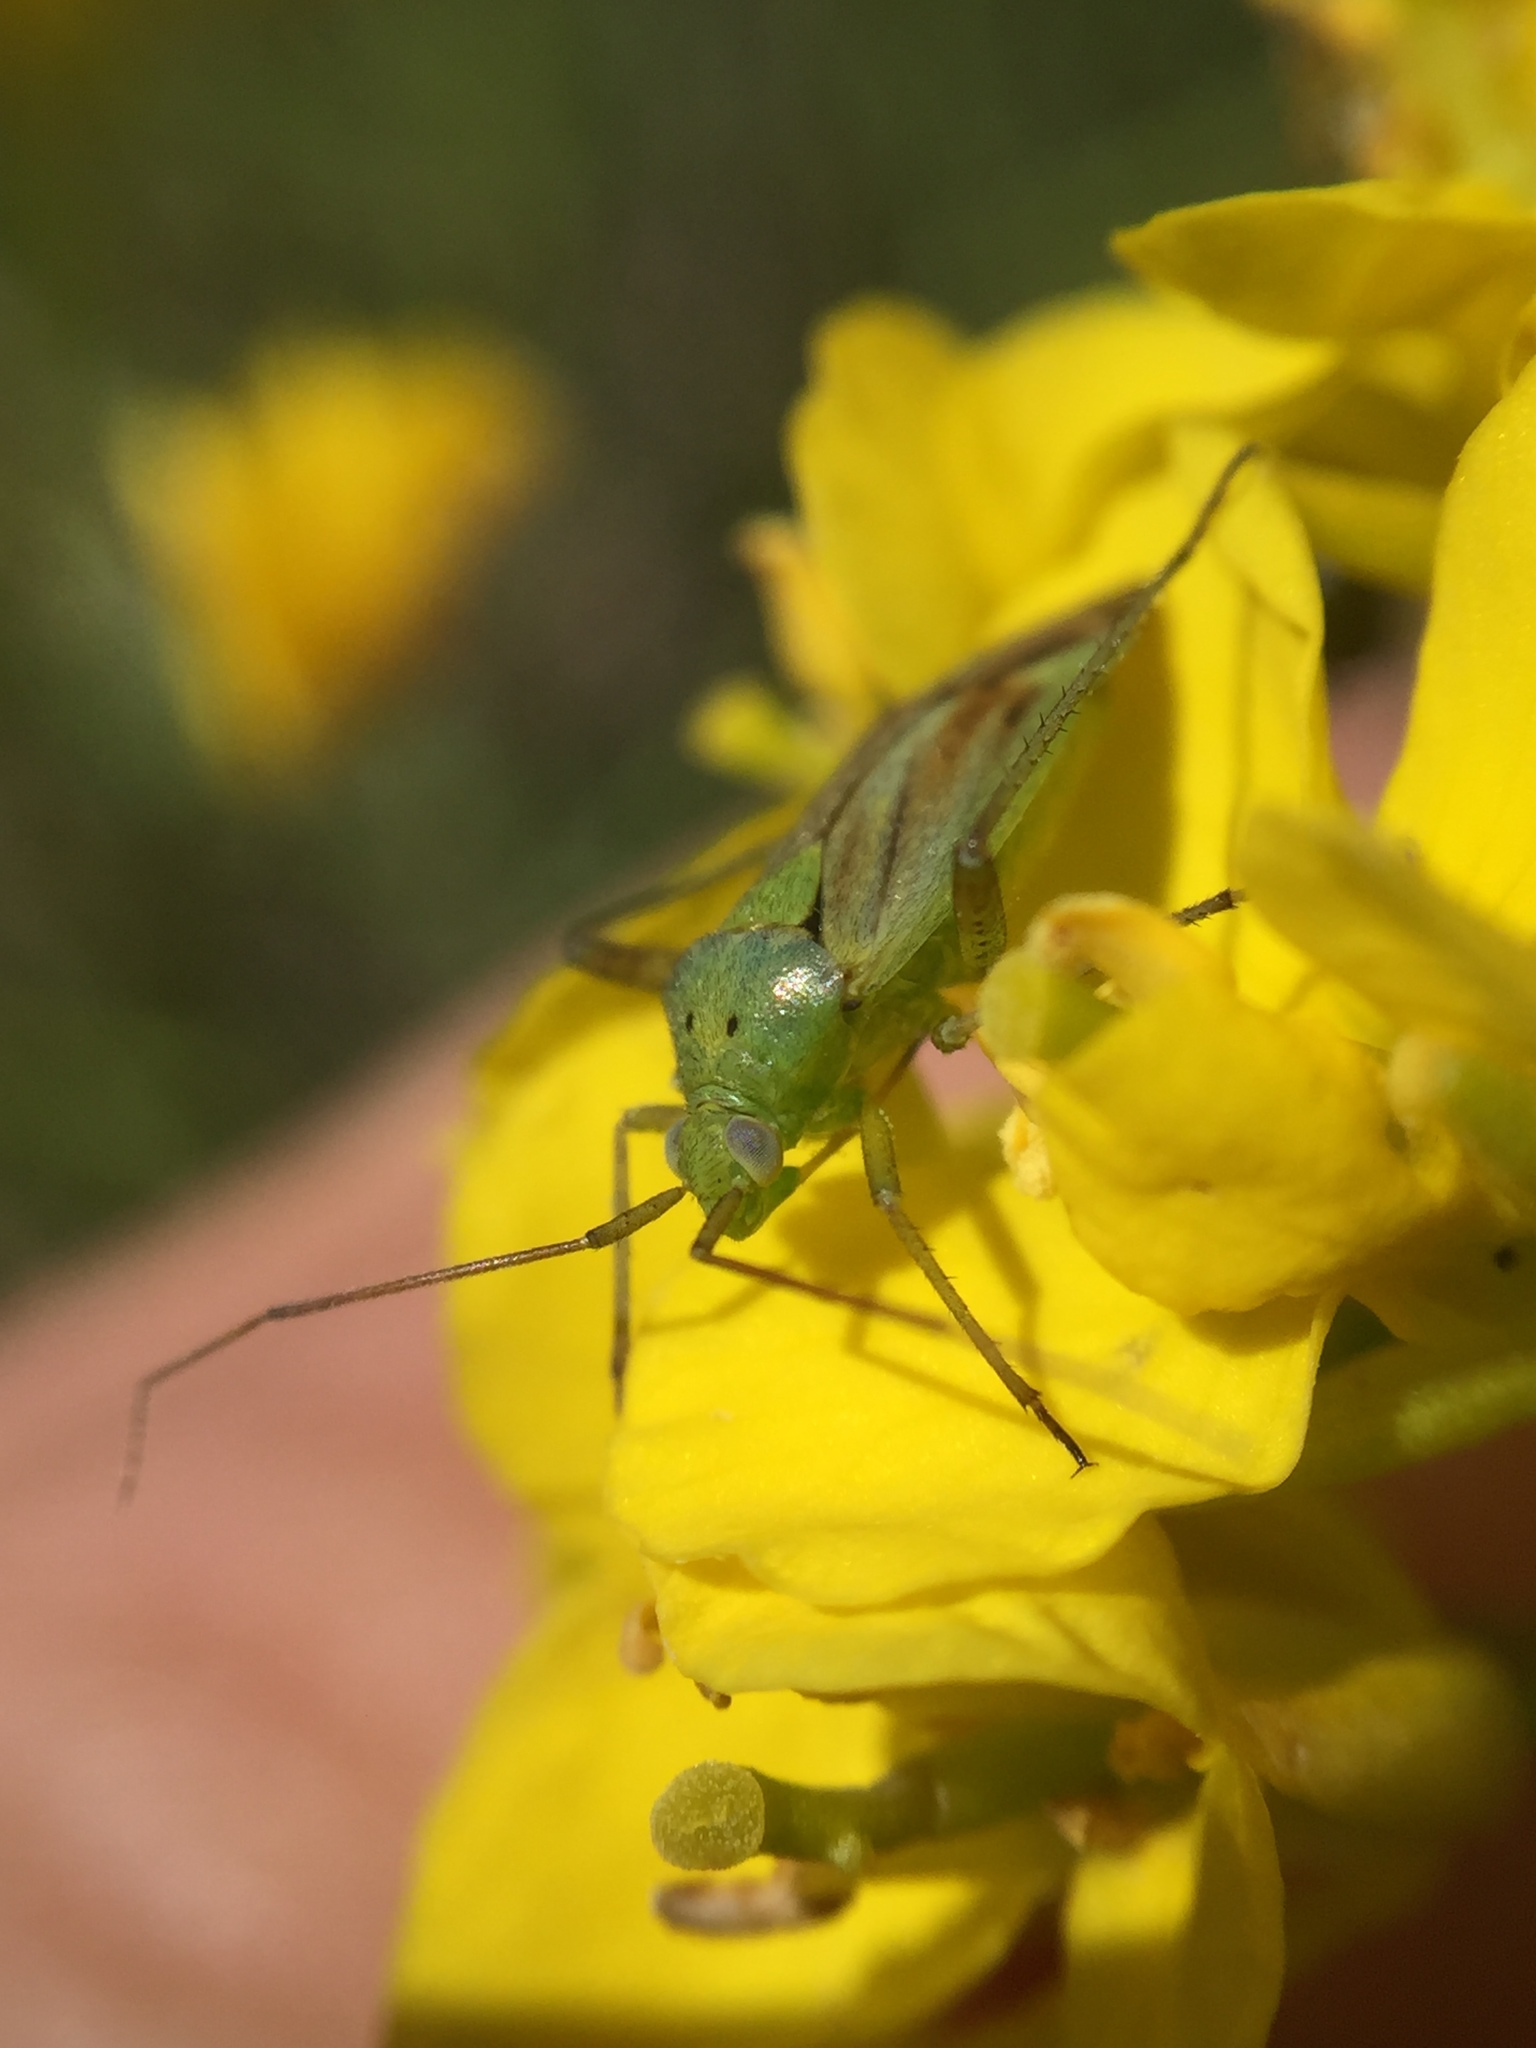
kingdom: Animalia
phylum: Arthropoda
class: Insecta
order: Hemiptera
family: Miridae
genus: Closterotomus
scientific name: Closterotomus norvegicus
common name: Plant bug
